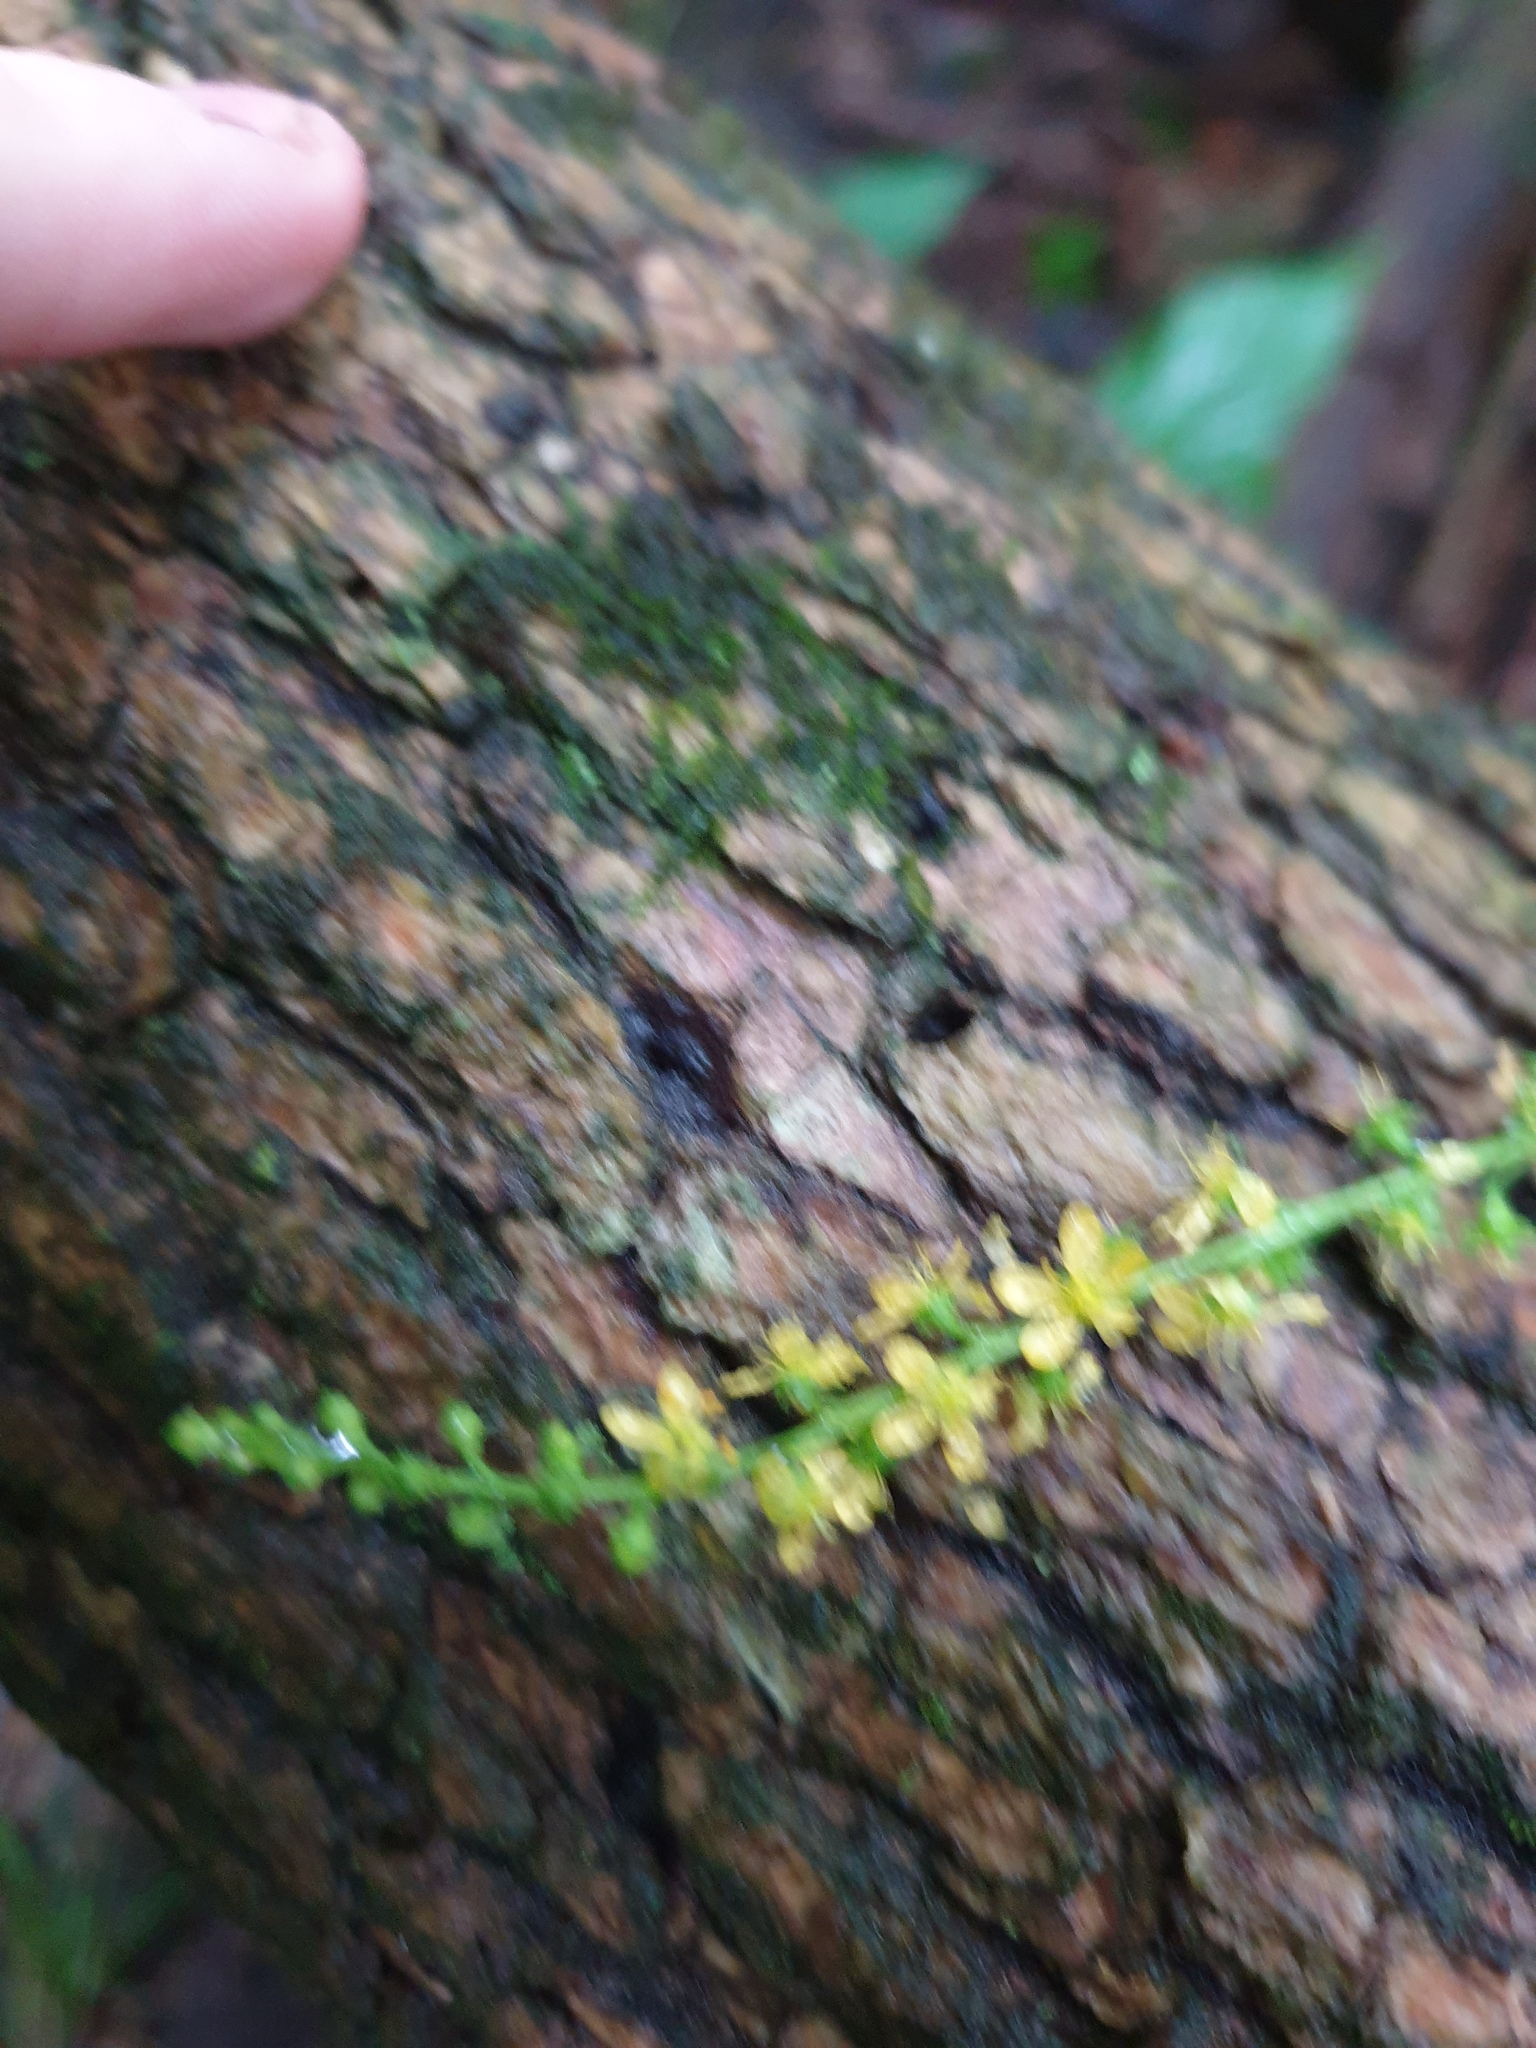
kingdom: Plantae
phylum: Tracheophyta
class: Magnoliopsida
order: Rosales
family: Rosaceae
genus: Agrimonia
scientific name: Agrimonia parviflora
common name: Harvest-lice
